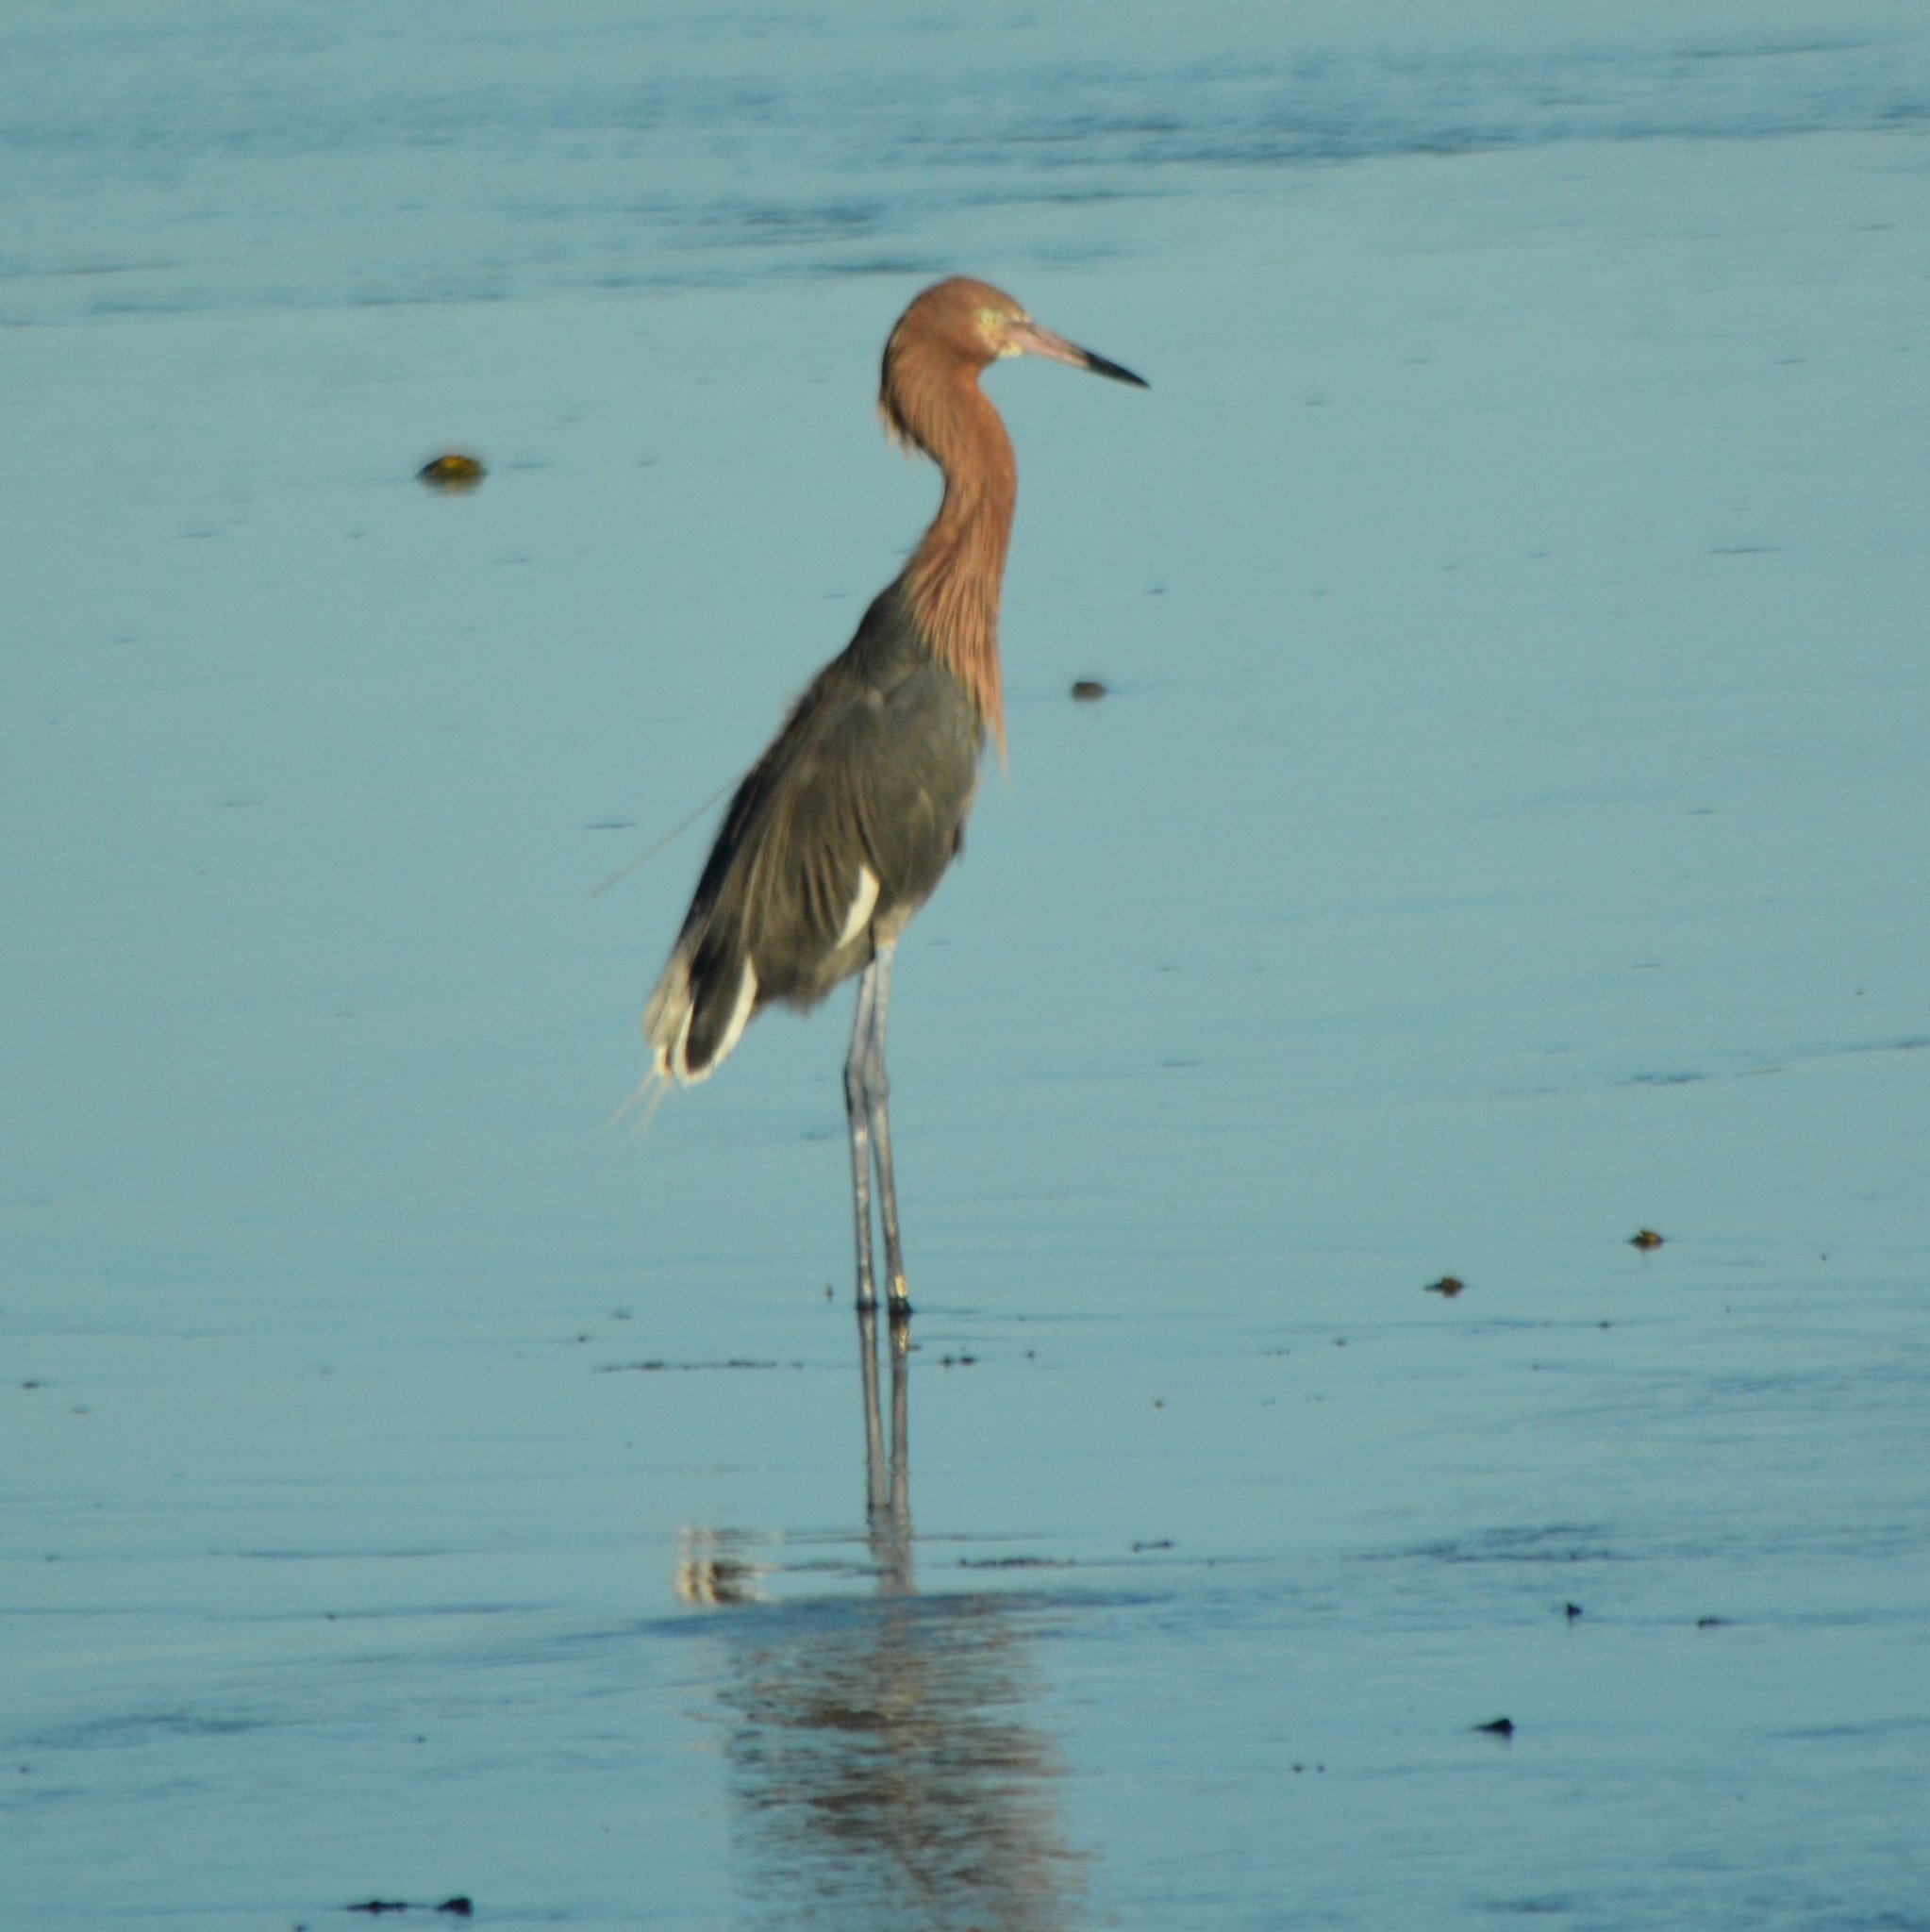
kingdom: Animalia
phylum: Chordata
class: Aves
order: Pelecaniformes
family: Ardeidae
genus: Egretta
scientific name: Egretta rufescens
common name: Reddish egret
